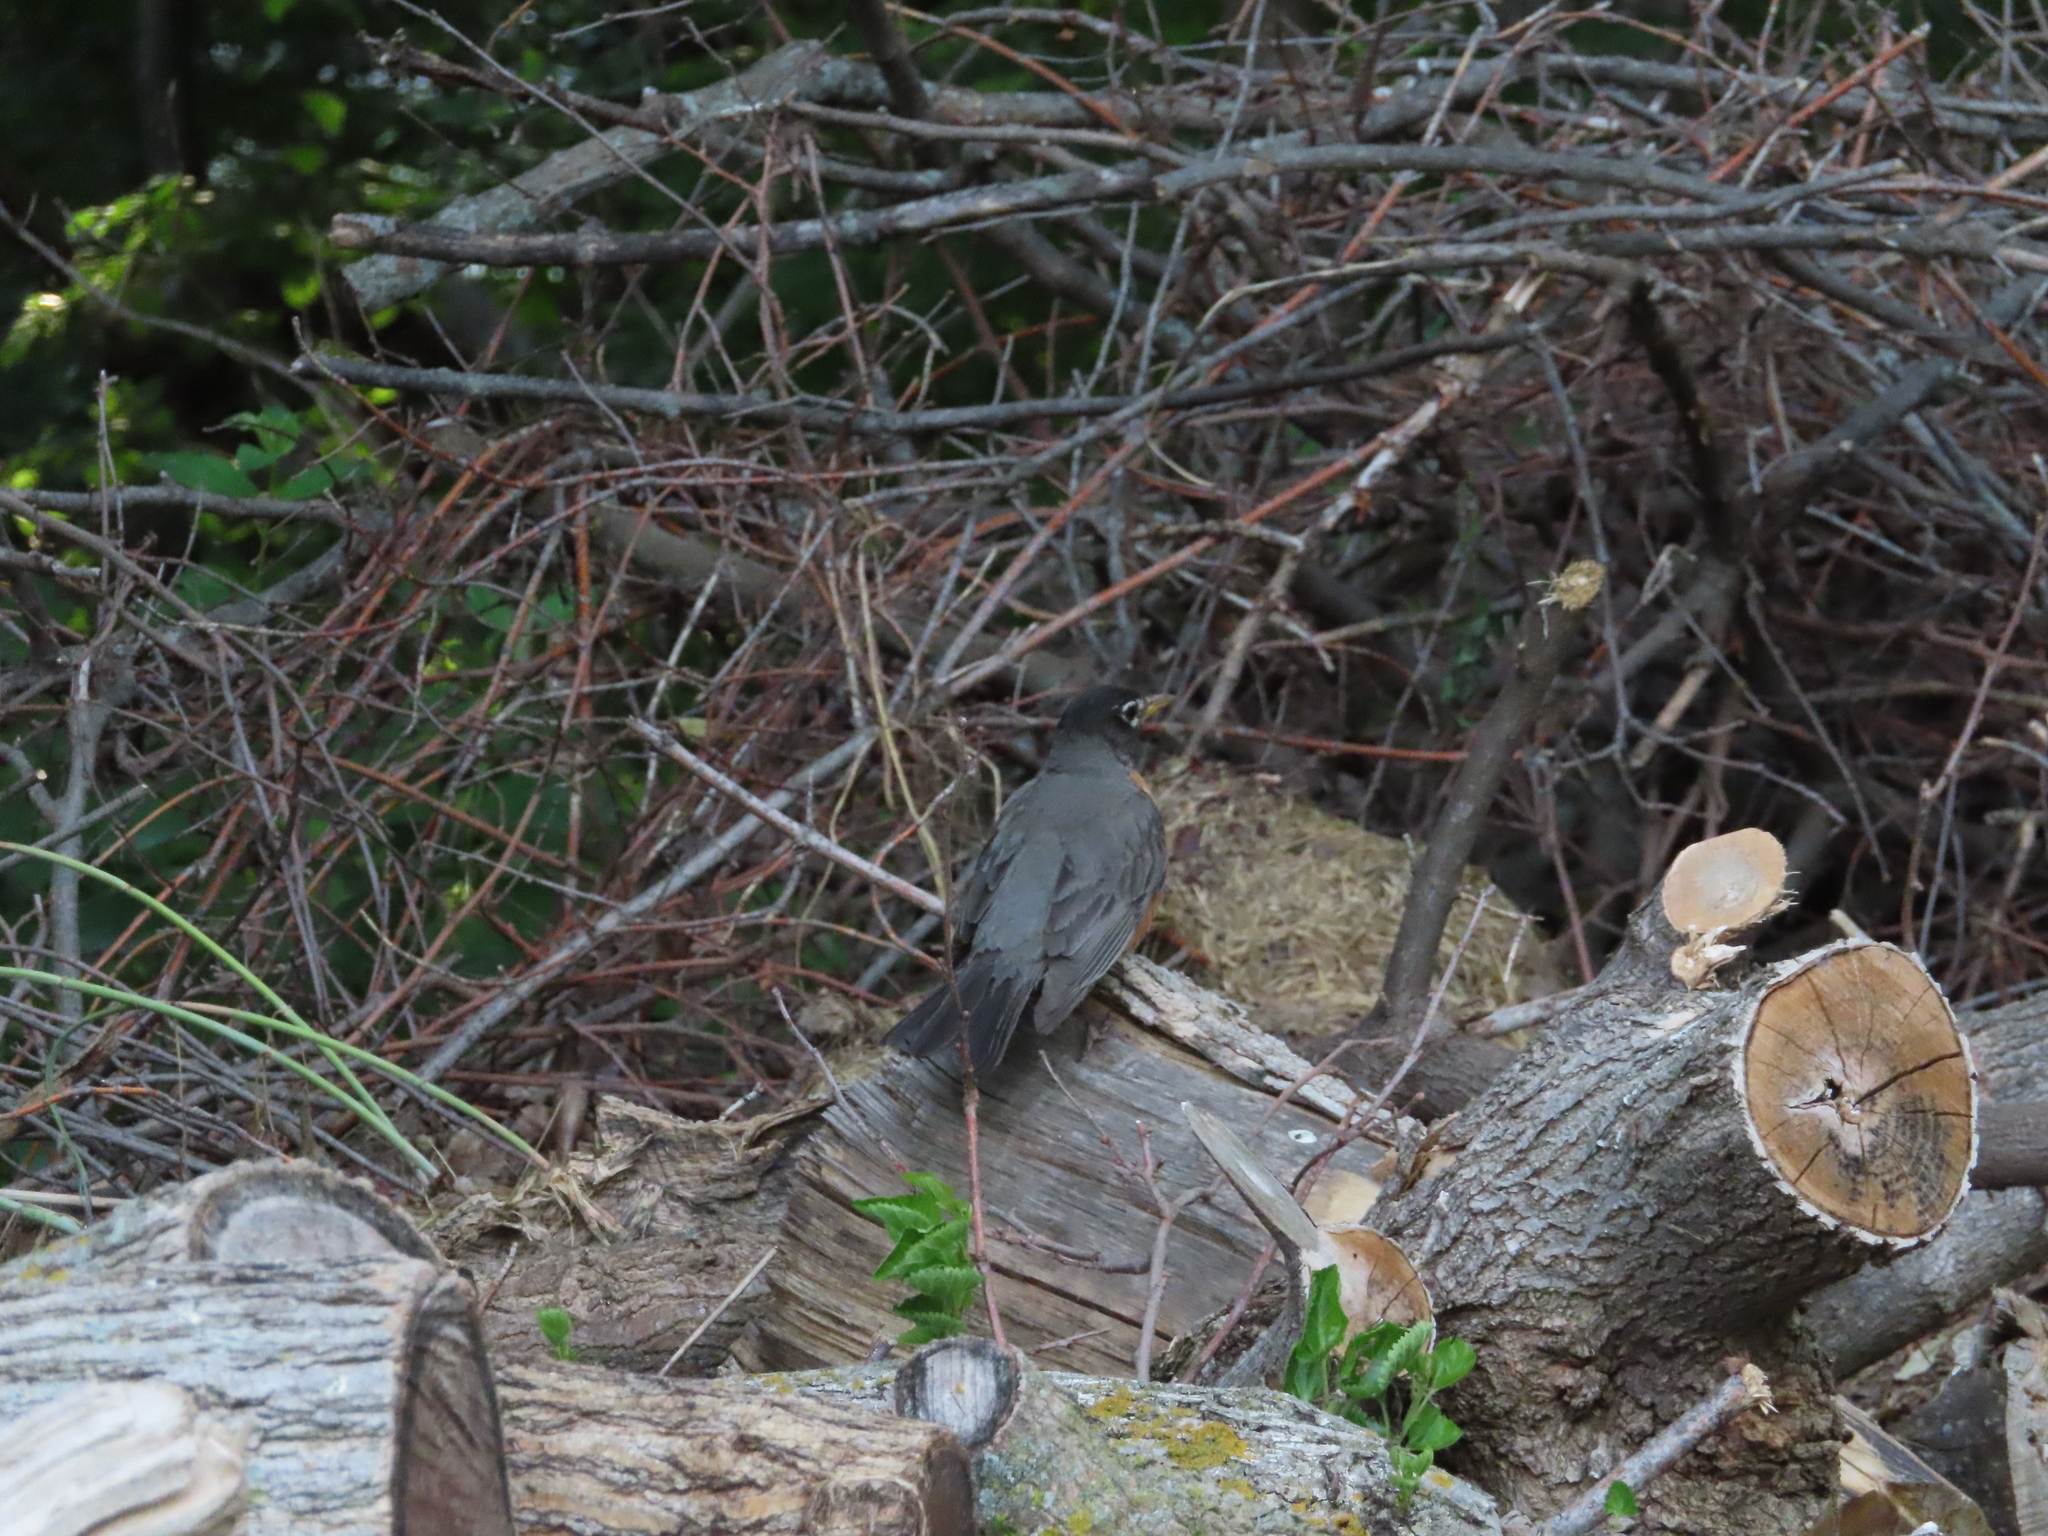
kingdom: Animalia
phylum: Chordata
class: Aves
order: Passeriformes
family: Turdidae
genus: Turdus
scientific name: Turdus migratorius
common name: American robin
